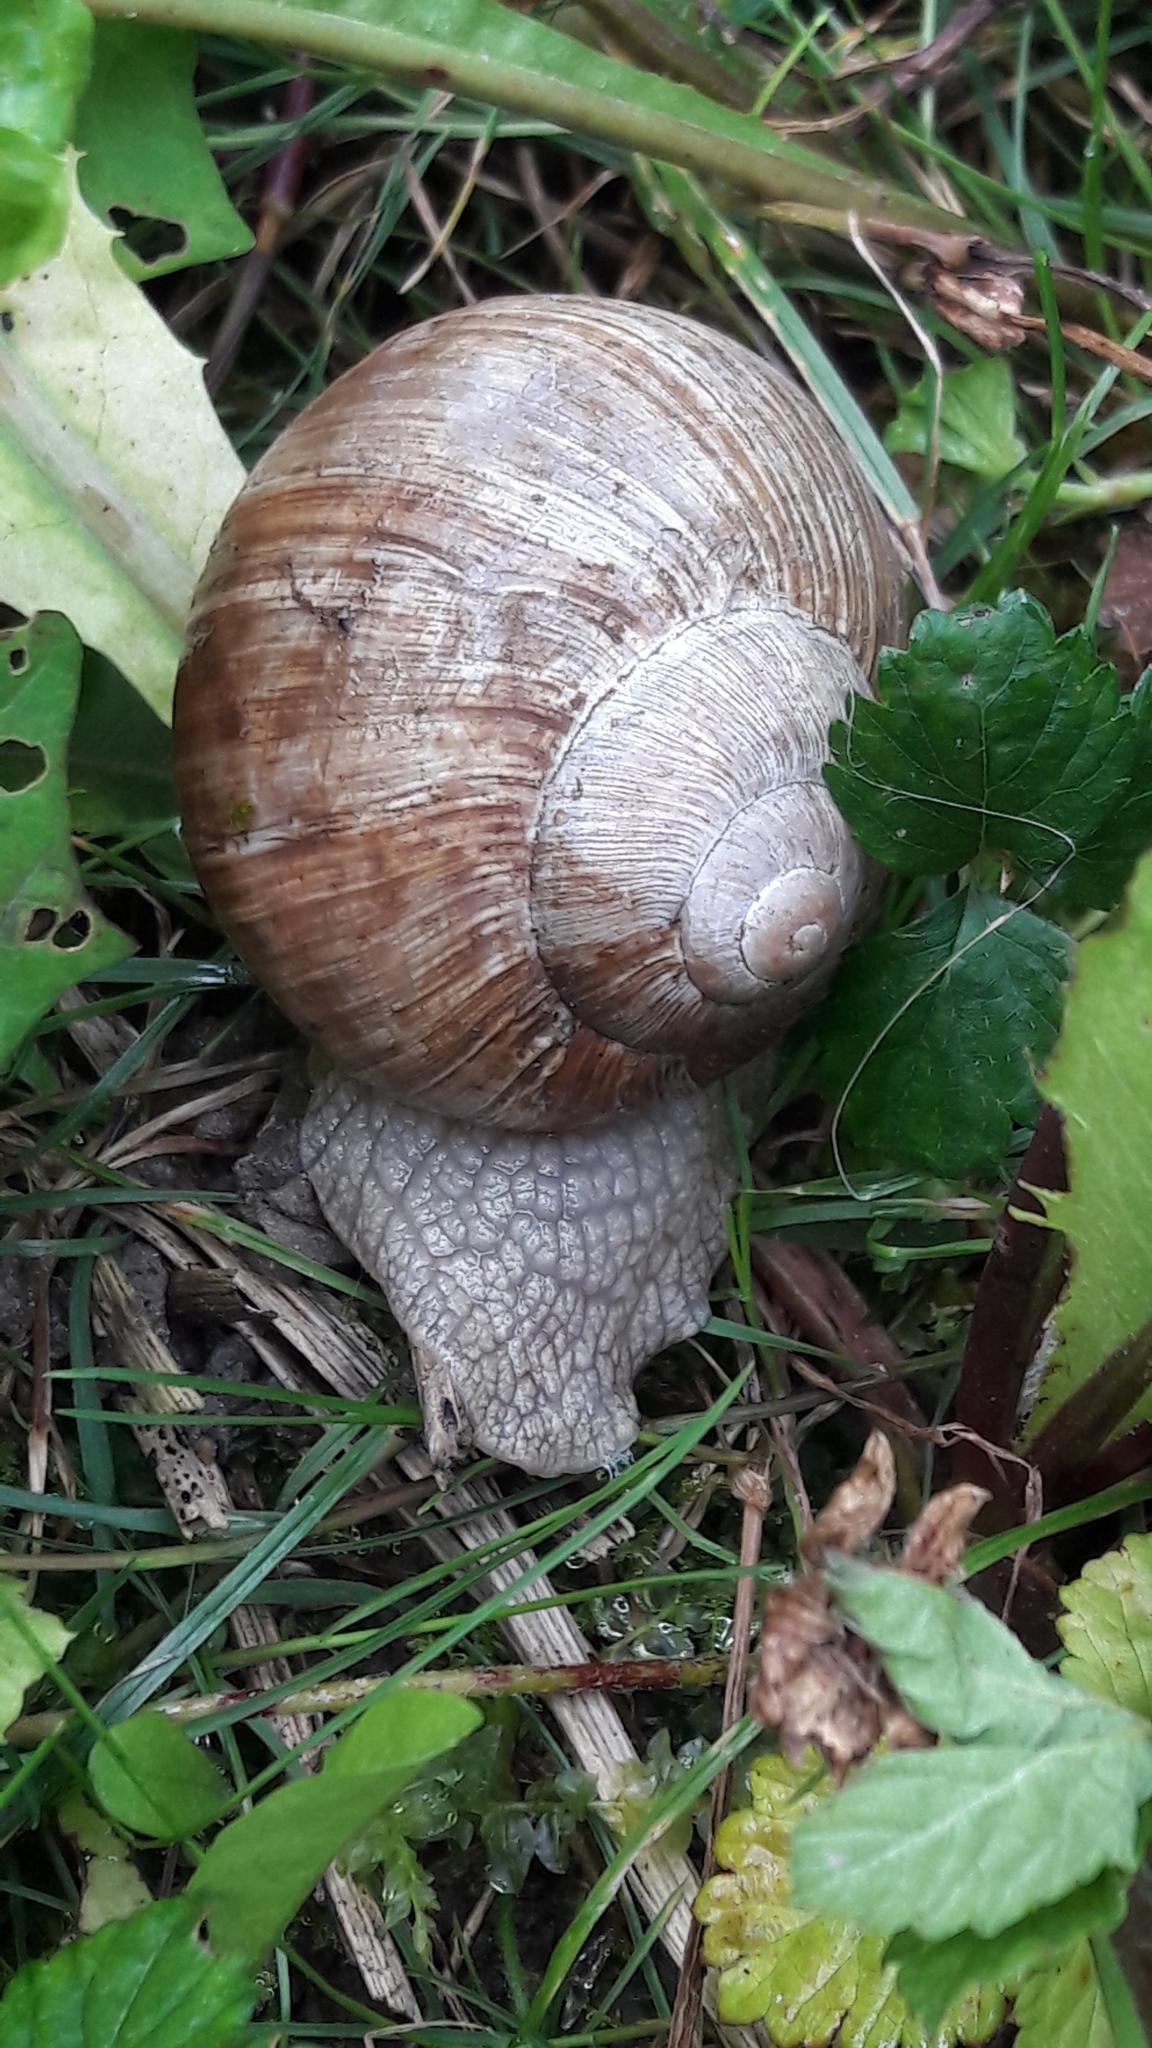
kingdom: Animalia
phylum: Mollusca
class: Gastropoda
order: Stylommatophora
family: Helicidae
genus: Helix
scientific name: Helix pomatia
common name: Roman snail
